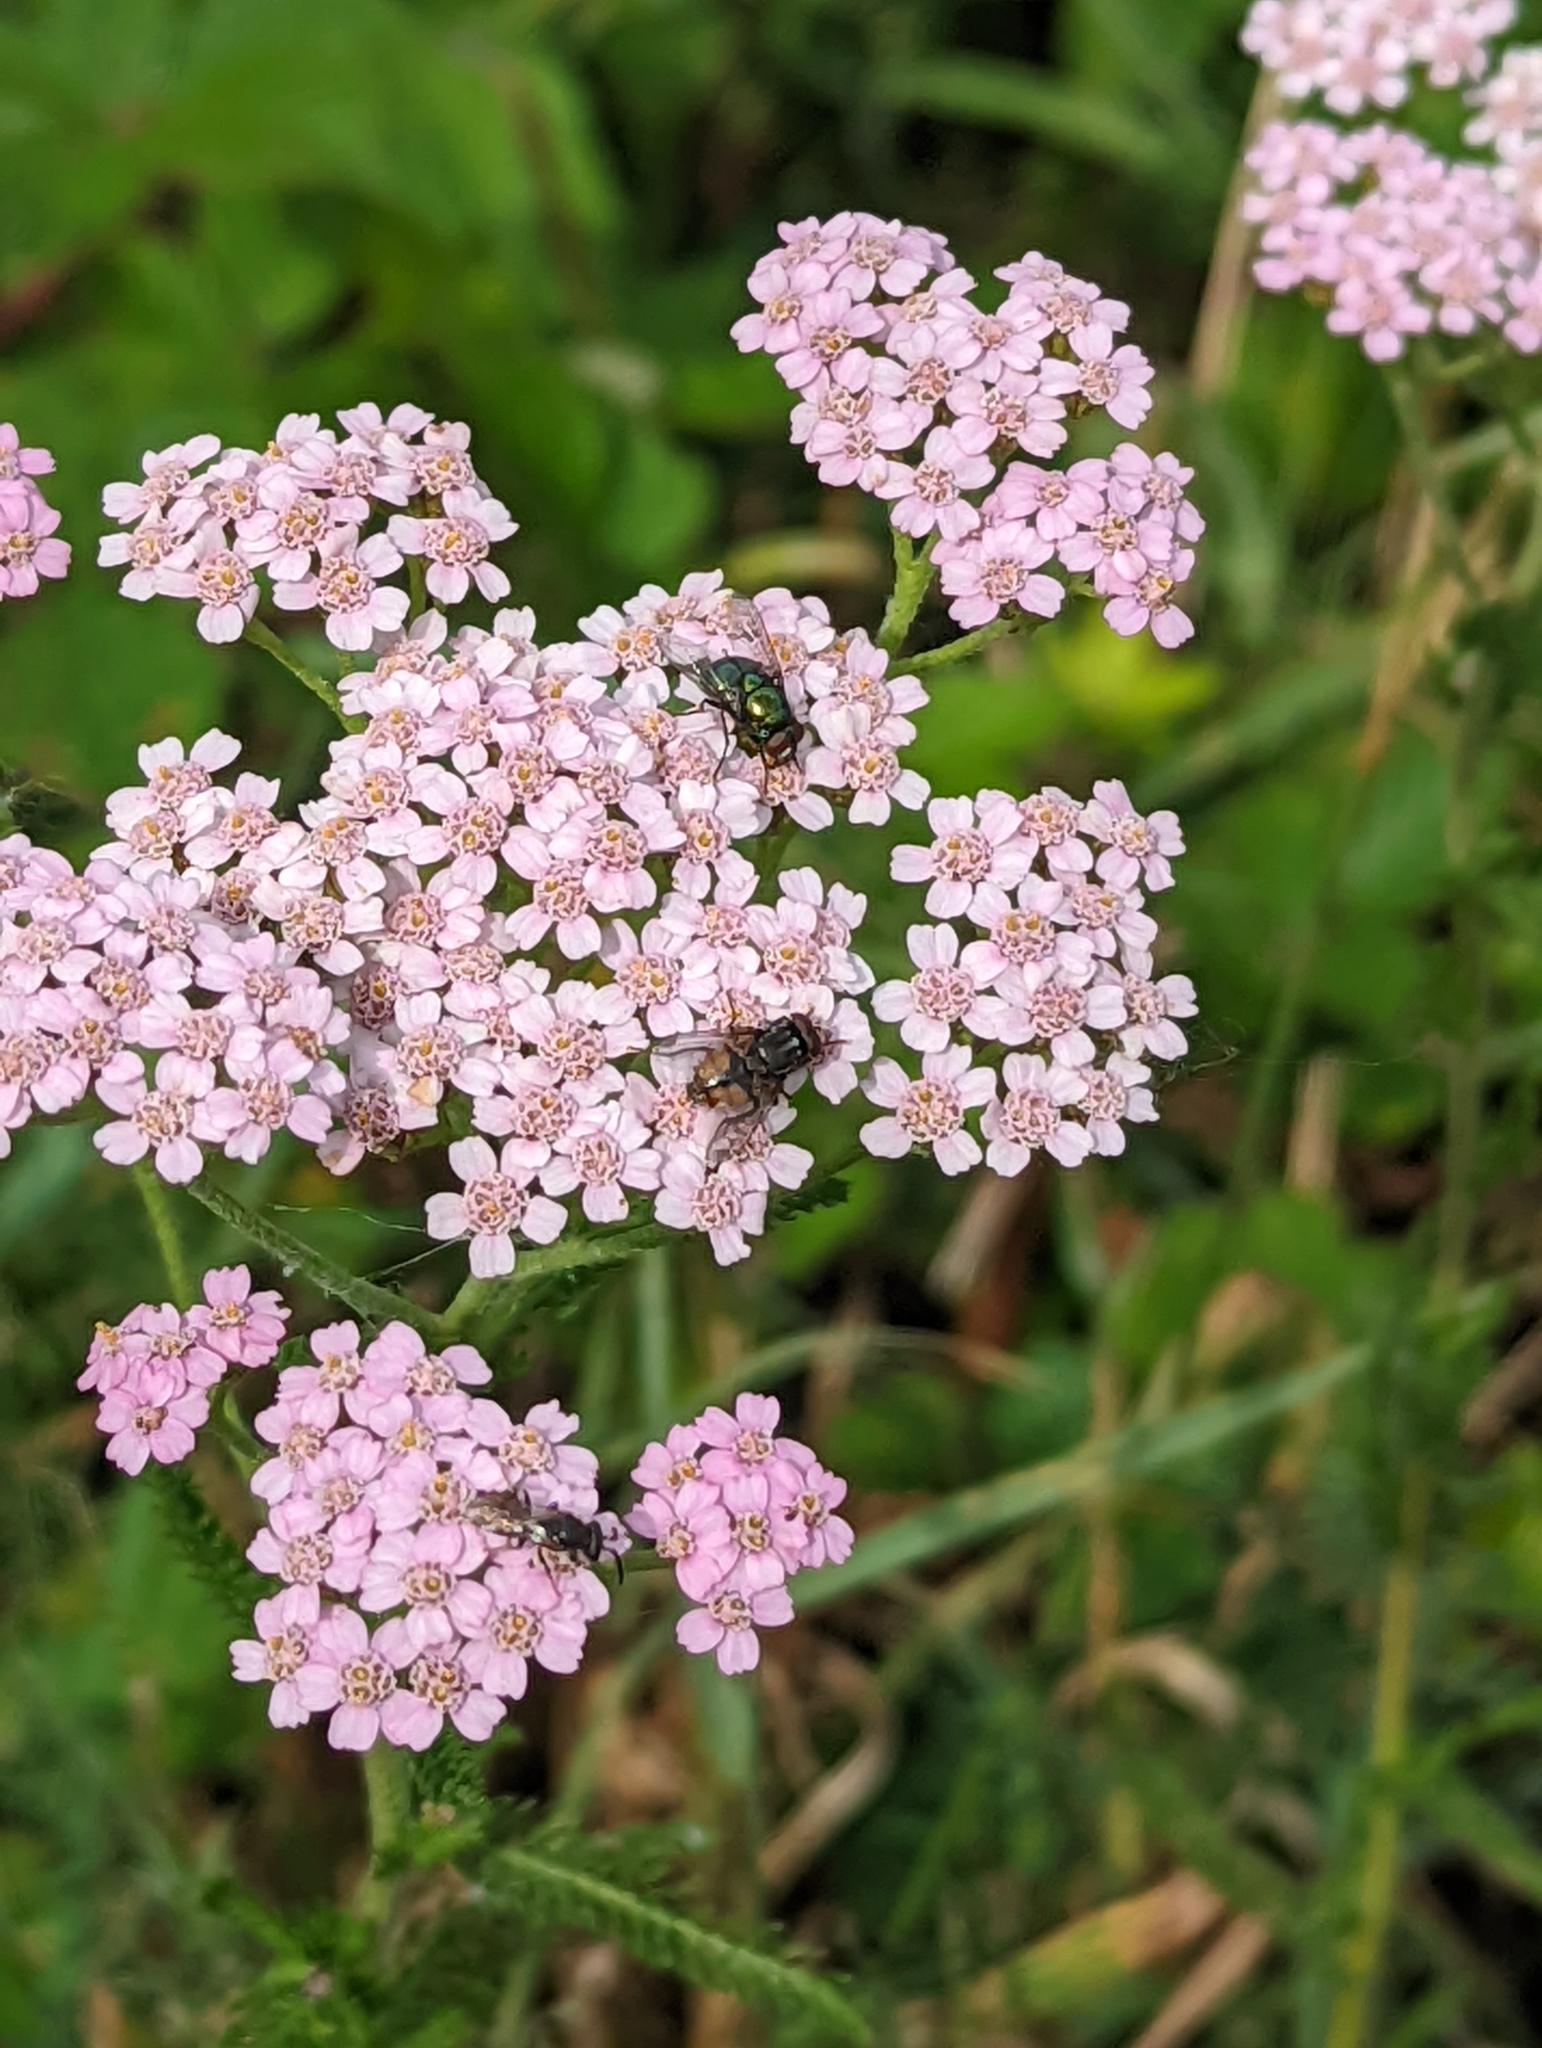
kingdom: Plantae
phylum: Tracheophyta
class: Magnoliopsida
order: Asterales
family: Asteraceae
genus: Achillea
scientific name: Achillea millefolium
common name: Yarrow
